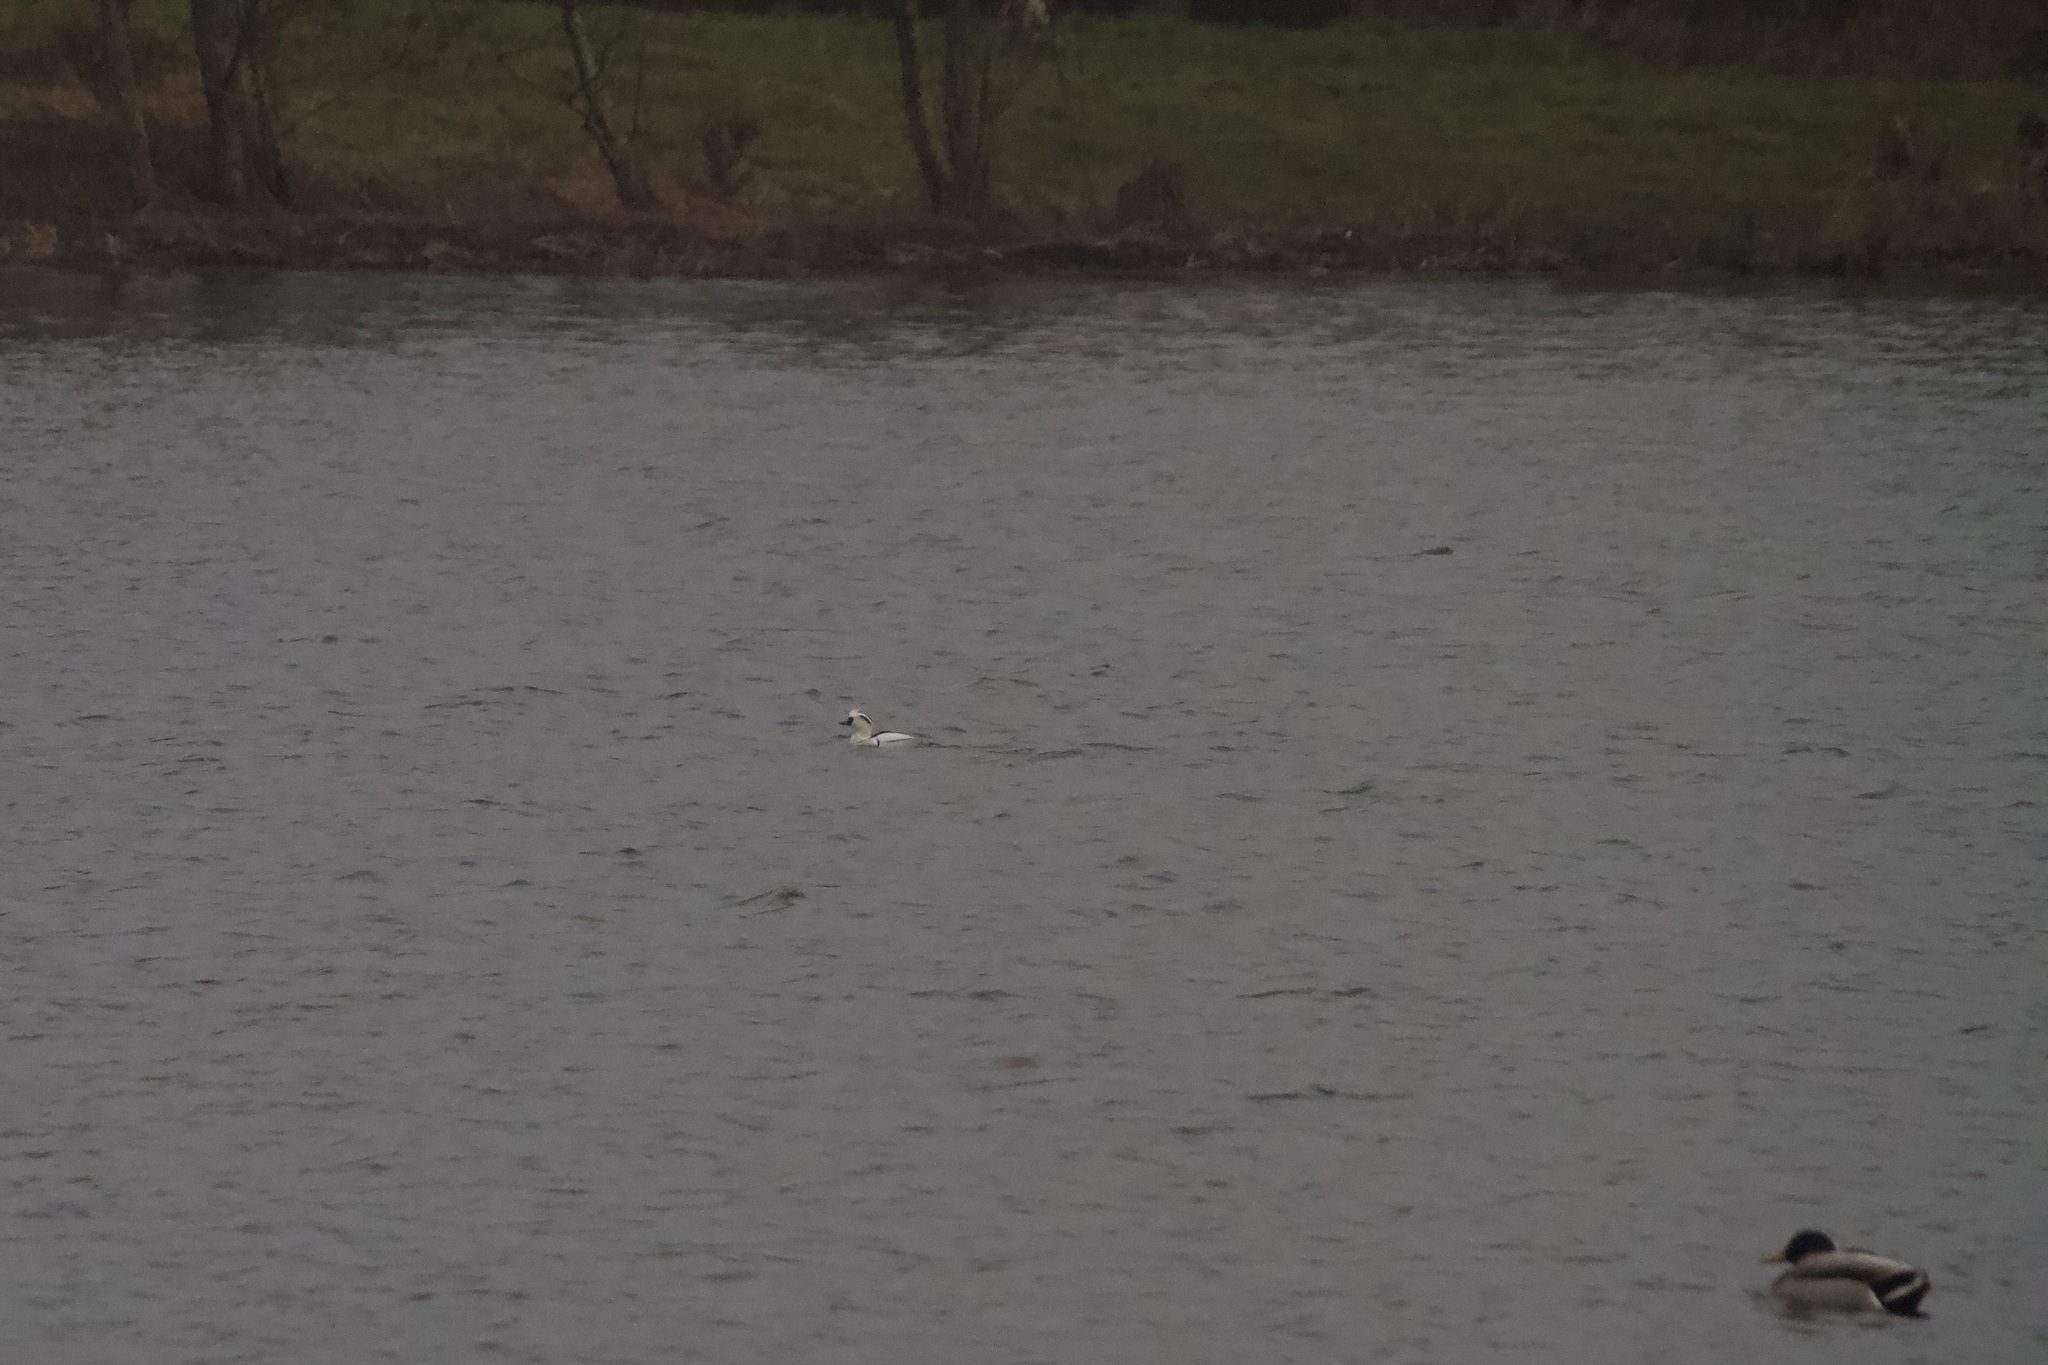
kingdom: Animalia
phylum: Chordata
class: Aves
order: Anseriformes
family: Anatidae
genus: Mergellus
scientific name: Mergellus albellus
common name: Smew
